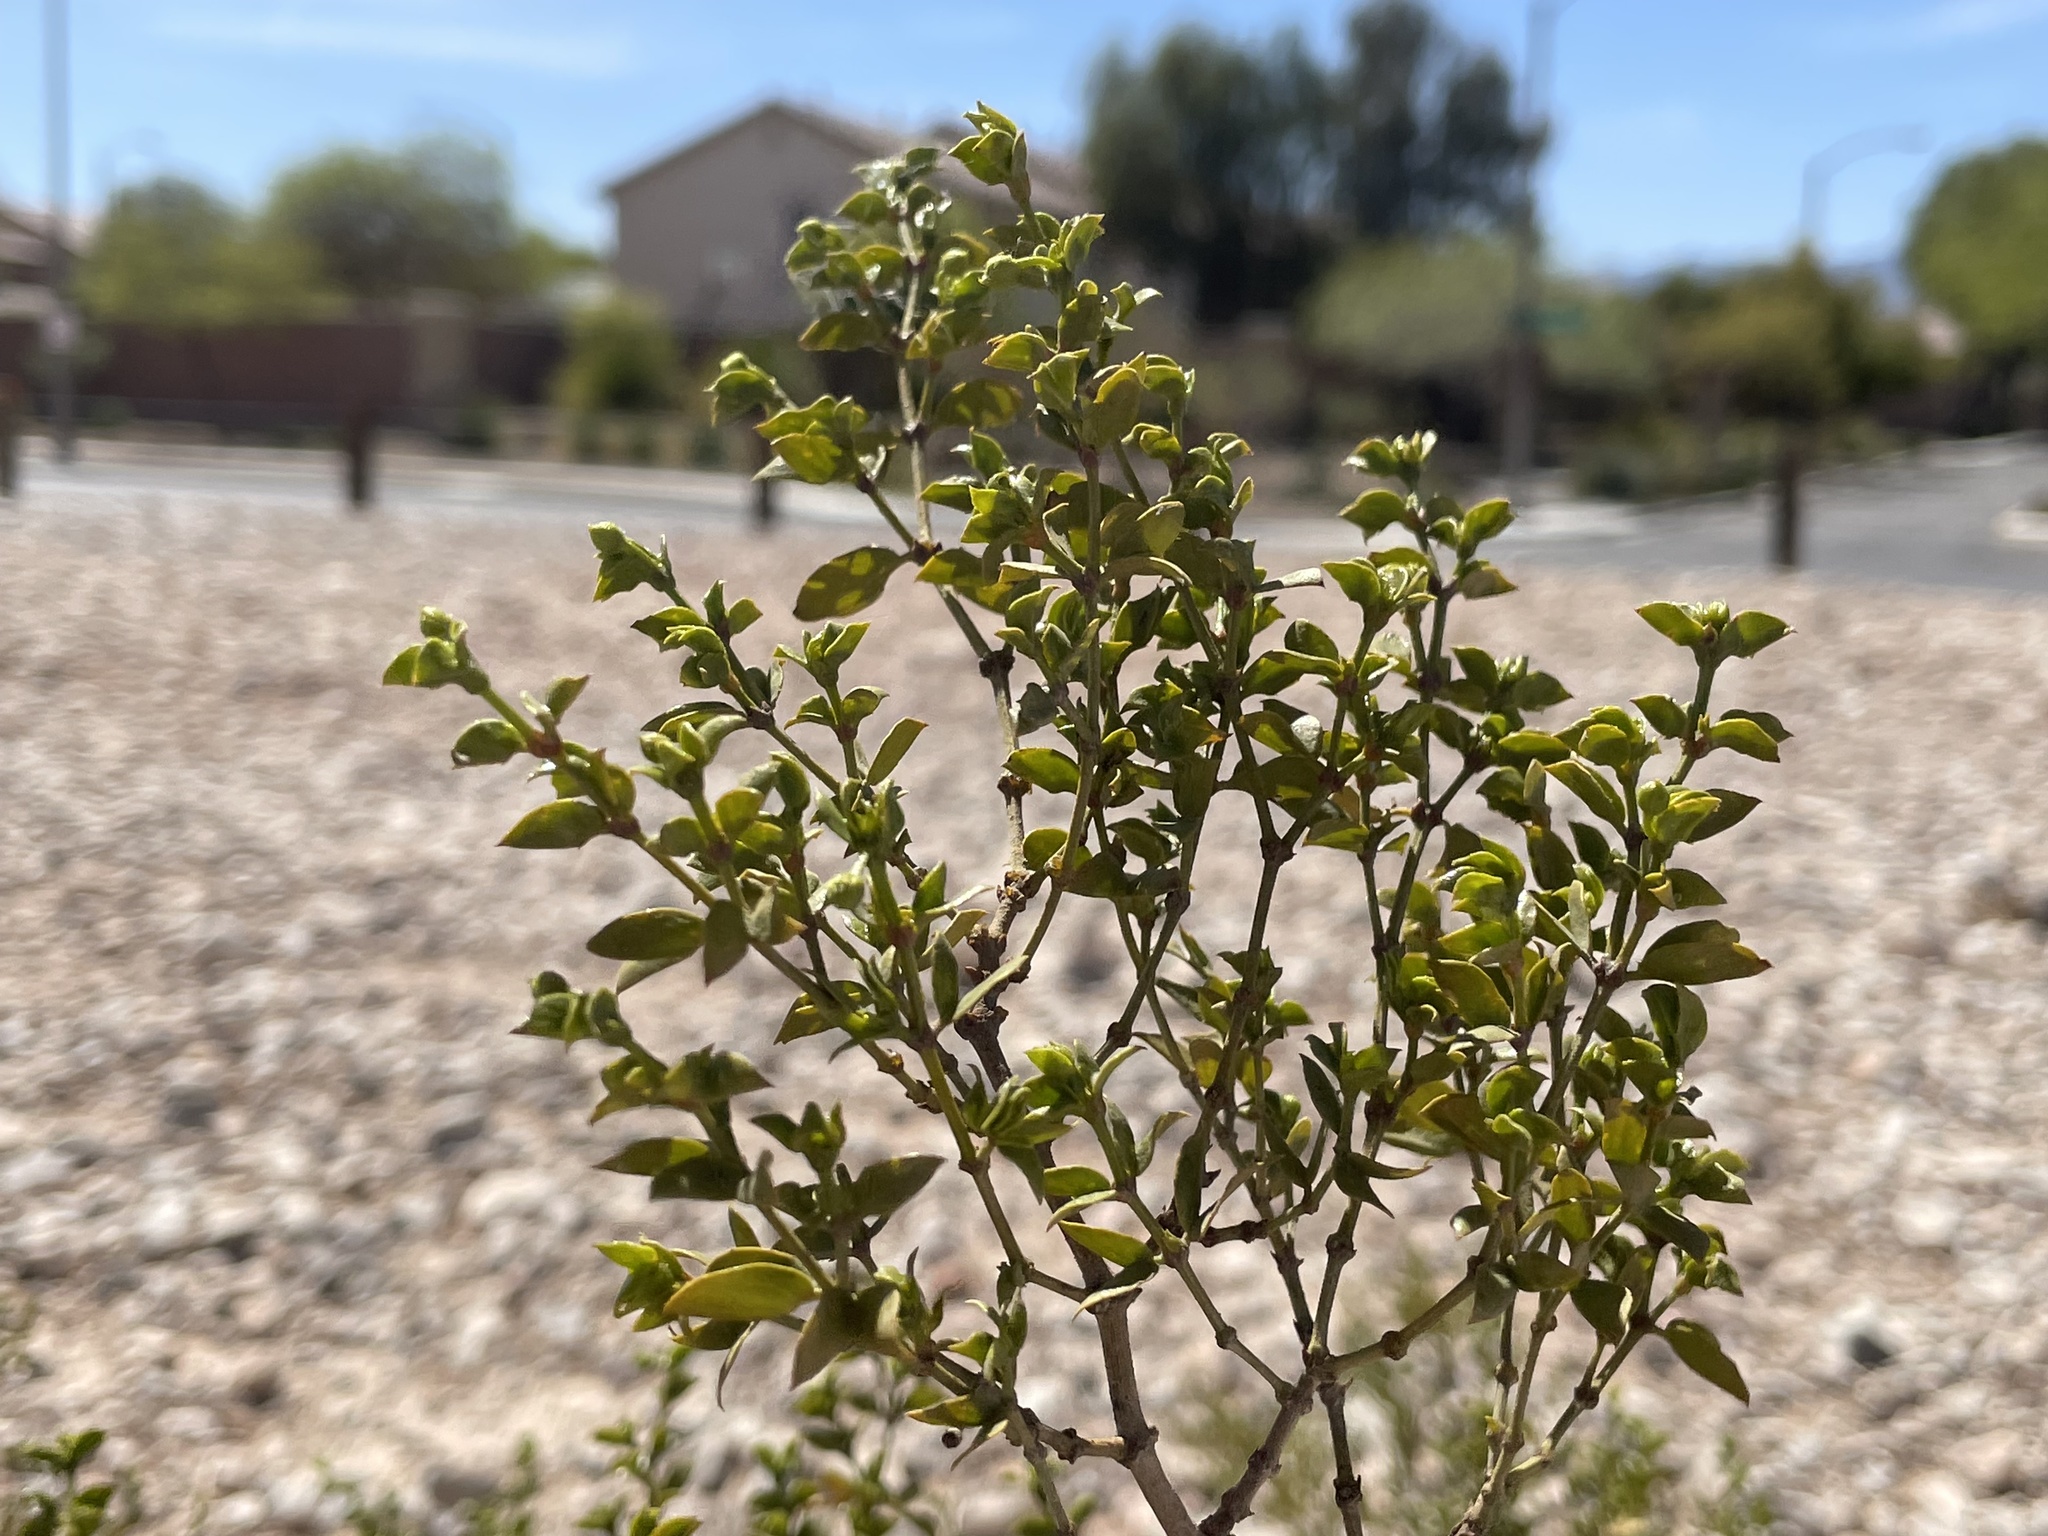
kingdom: Plantae
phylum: Tracheophyta
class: Magnoliopsida
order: Zygophyllales
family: Zygophyllaceae
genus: Larrea
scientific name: Larrea tridentata
